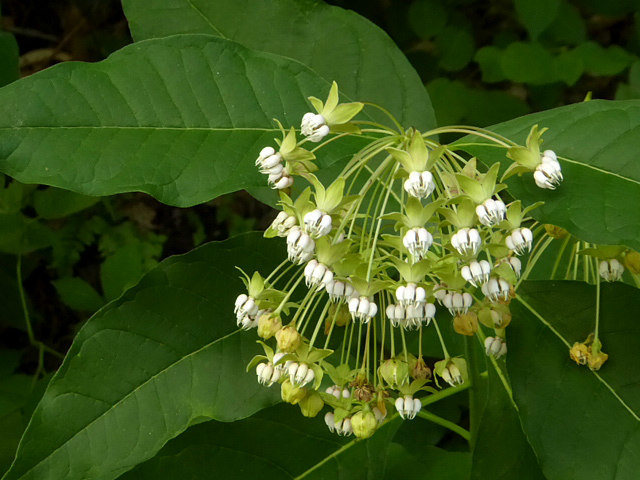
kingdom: Plantae
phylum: Tracheophyta
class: Magnoliopsida
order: Gentianales
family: Apocynaceae
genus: Asclepias
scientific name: Asclepias exaltata
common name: Poke milkweed
